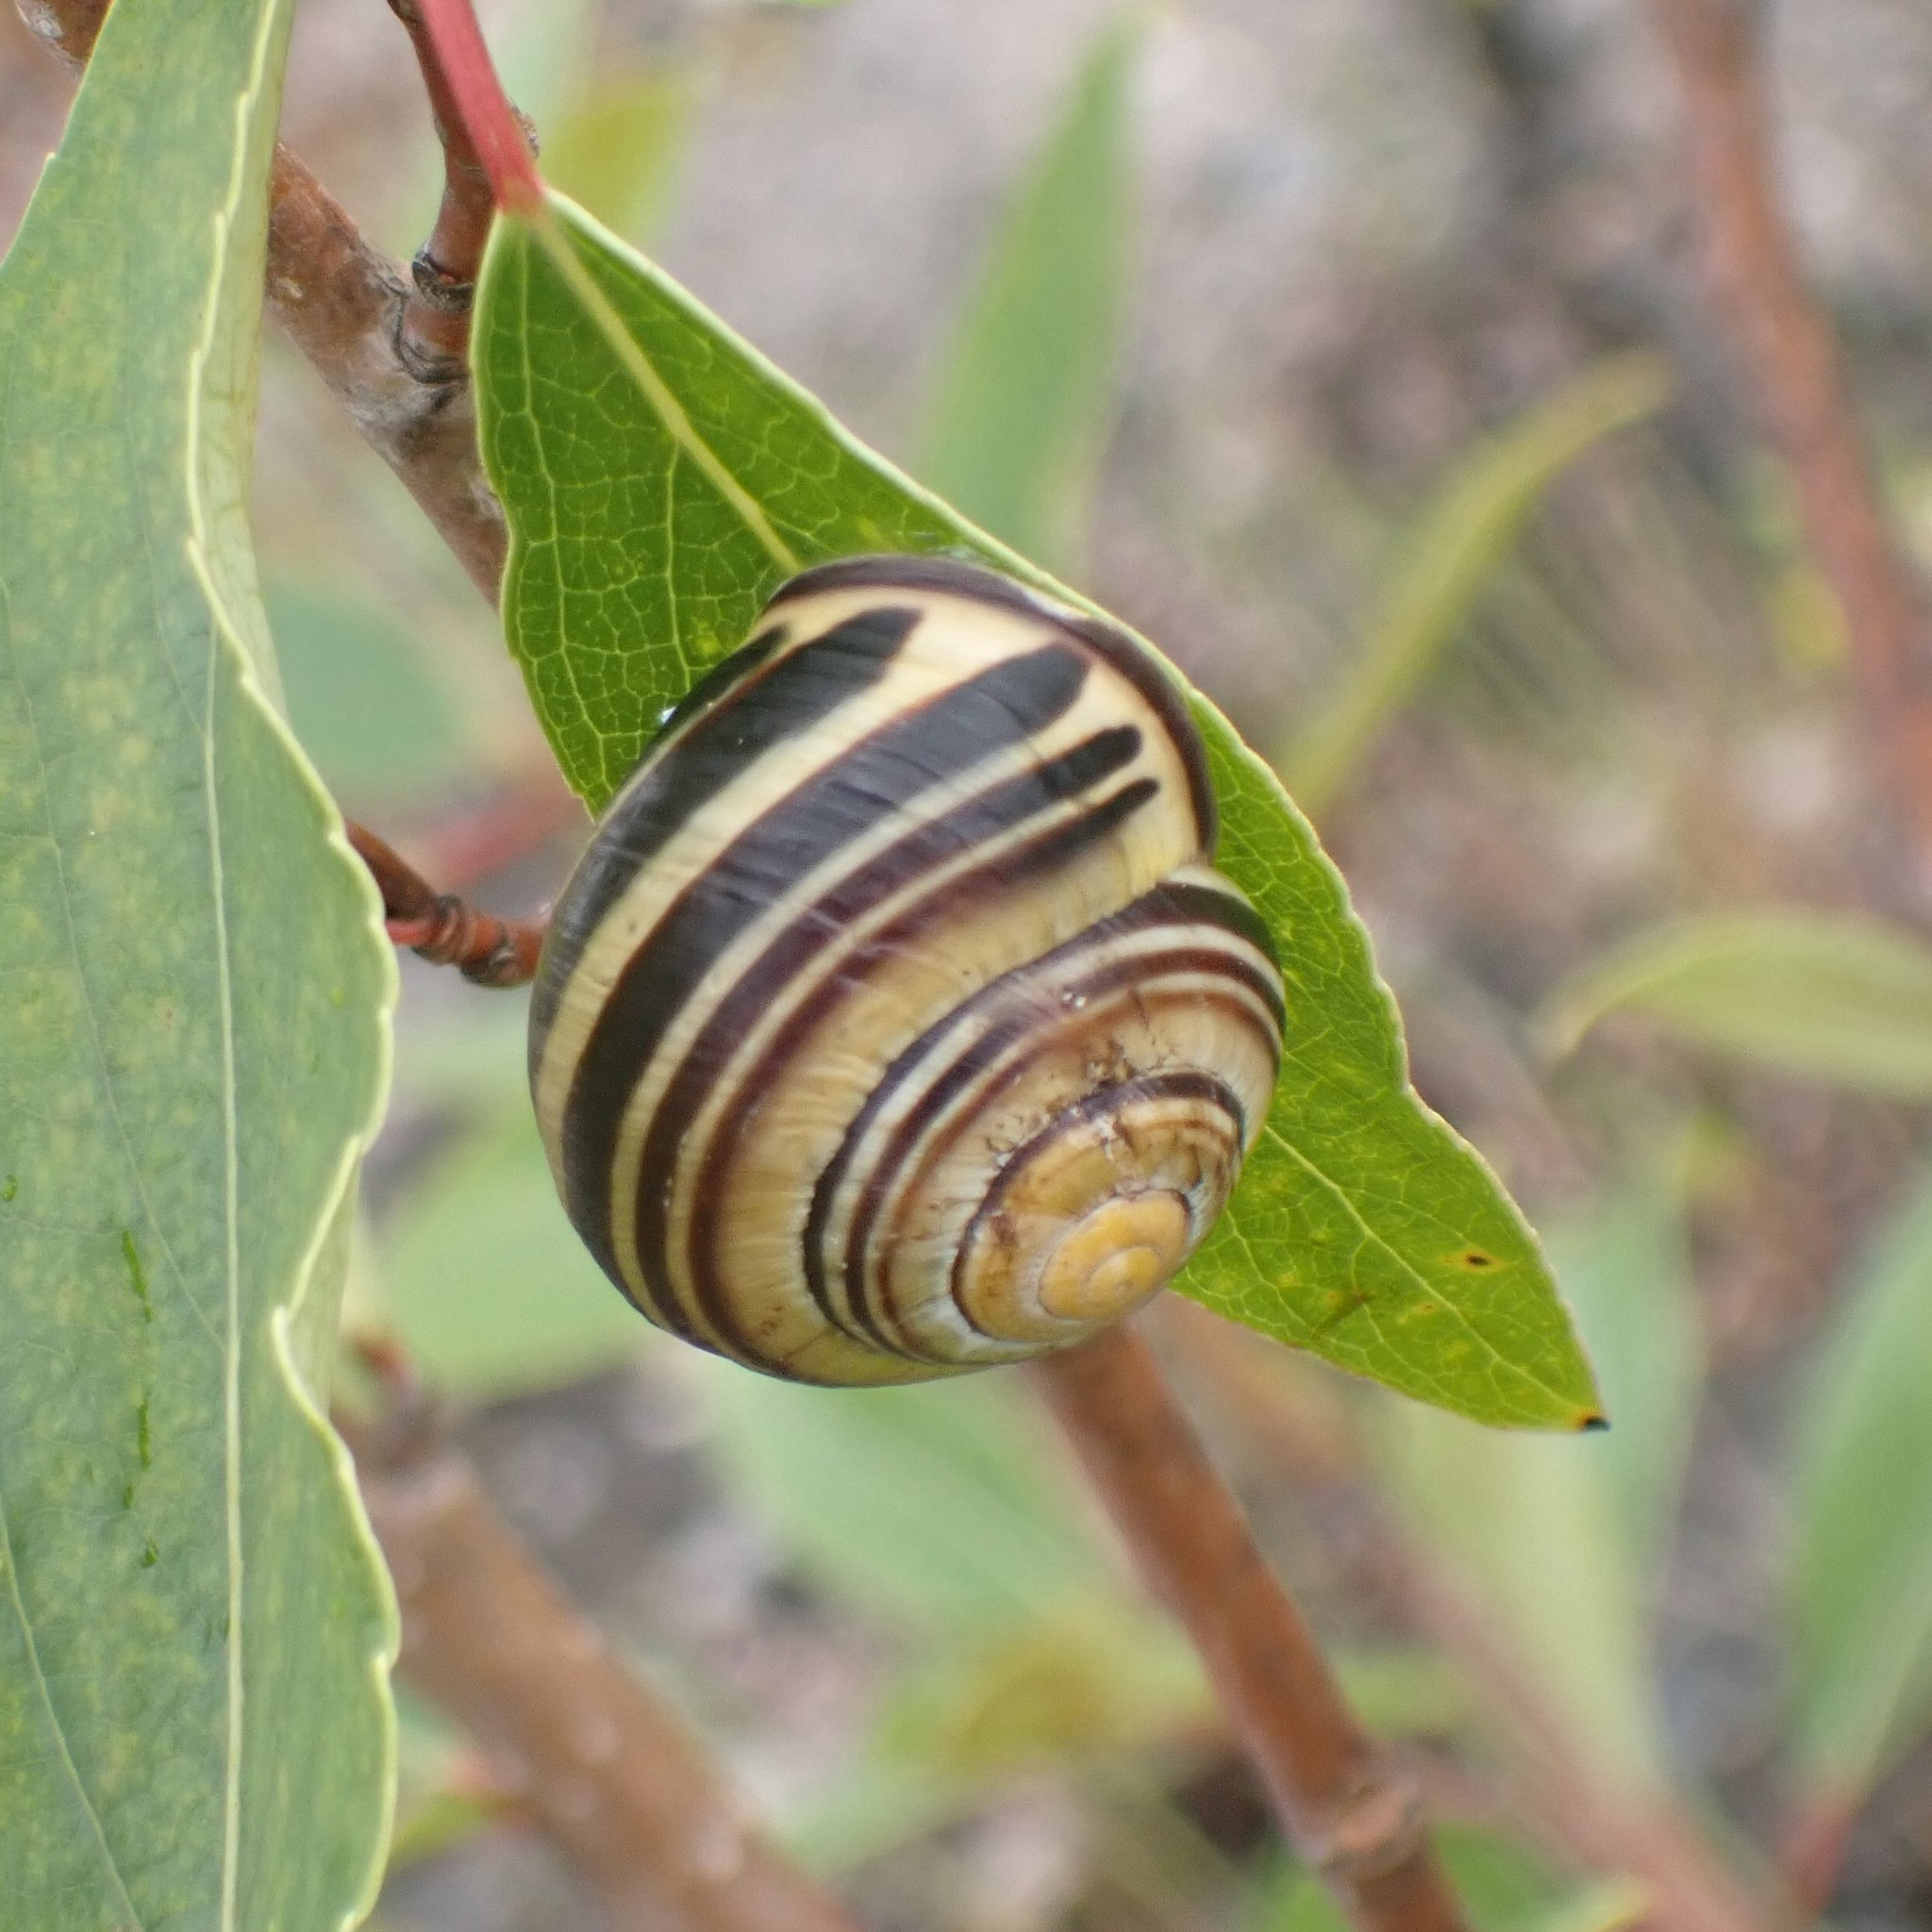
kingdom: Animalia
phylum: Mollusca
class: Gastropoda
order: Stylommatophora
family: Helicidae
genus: Cepaea
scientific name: Cepaea nemoralis
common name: Grovesnail
